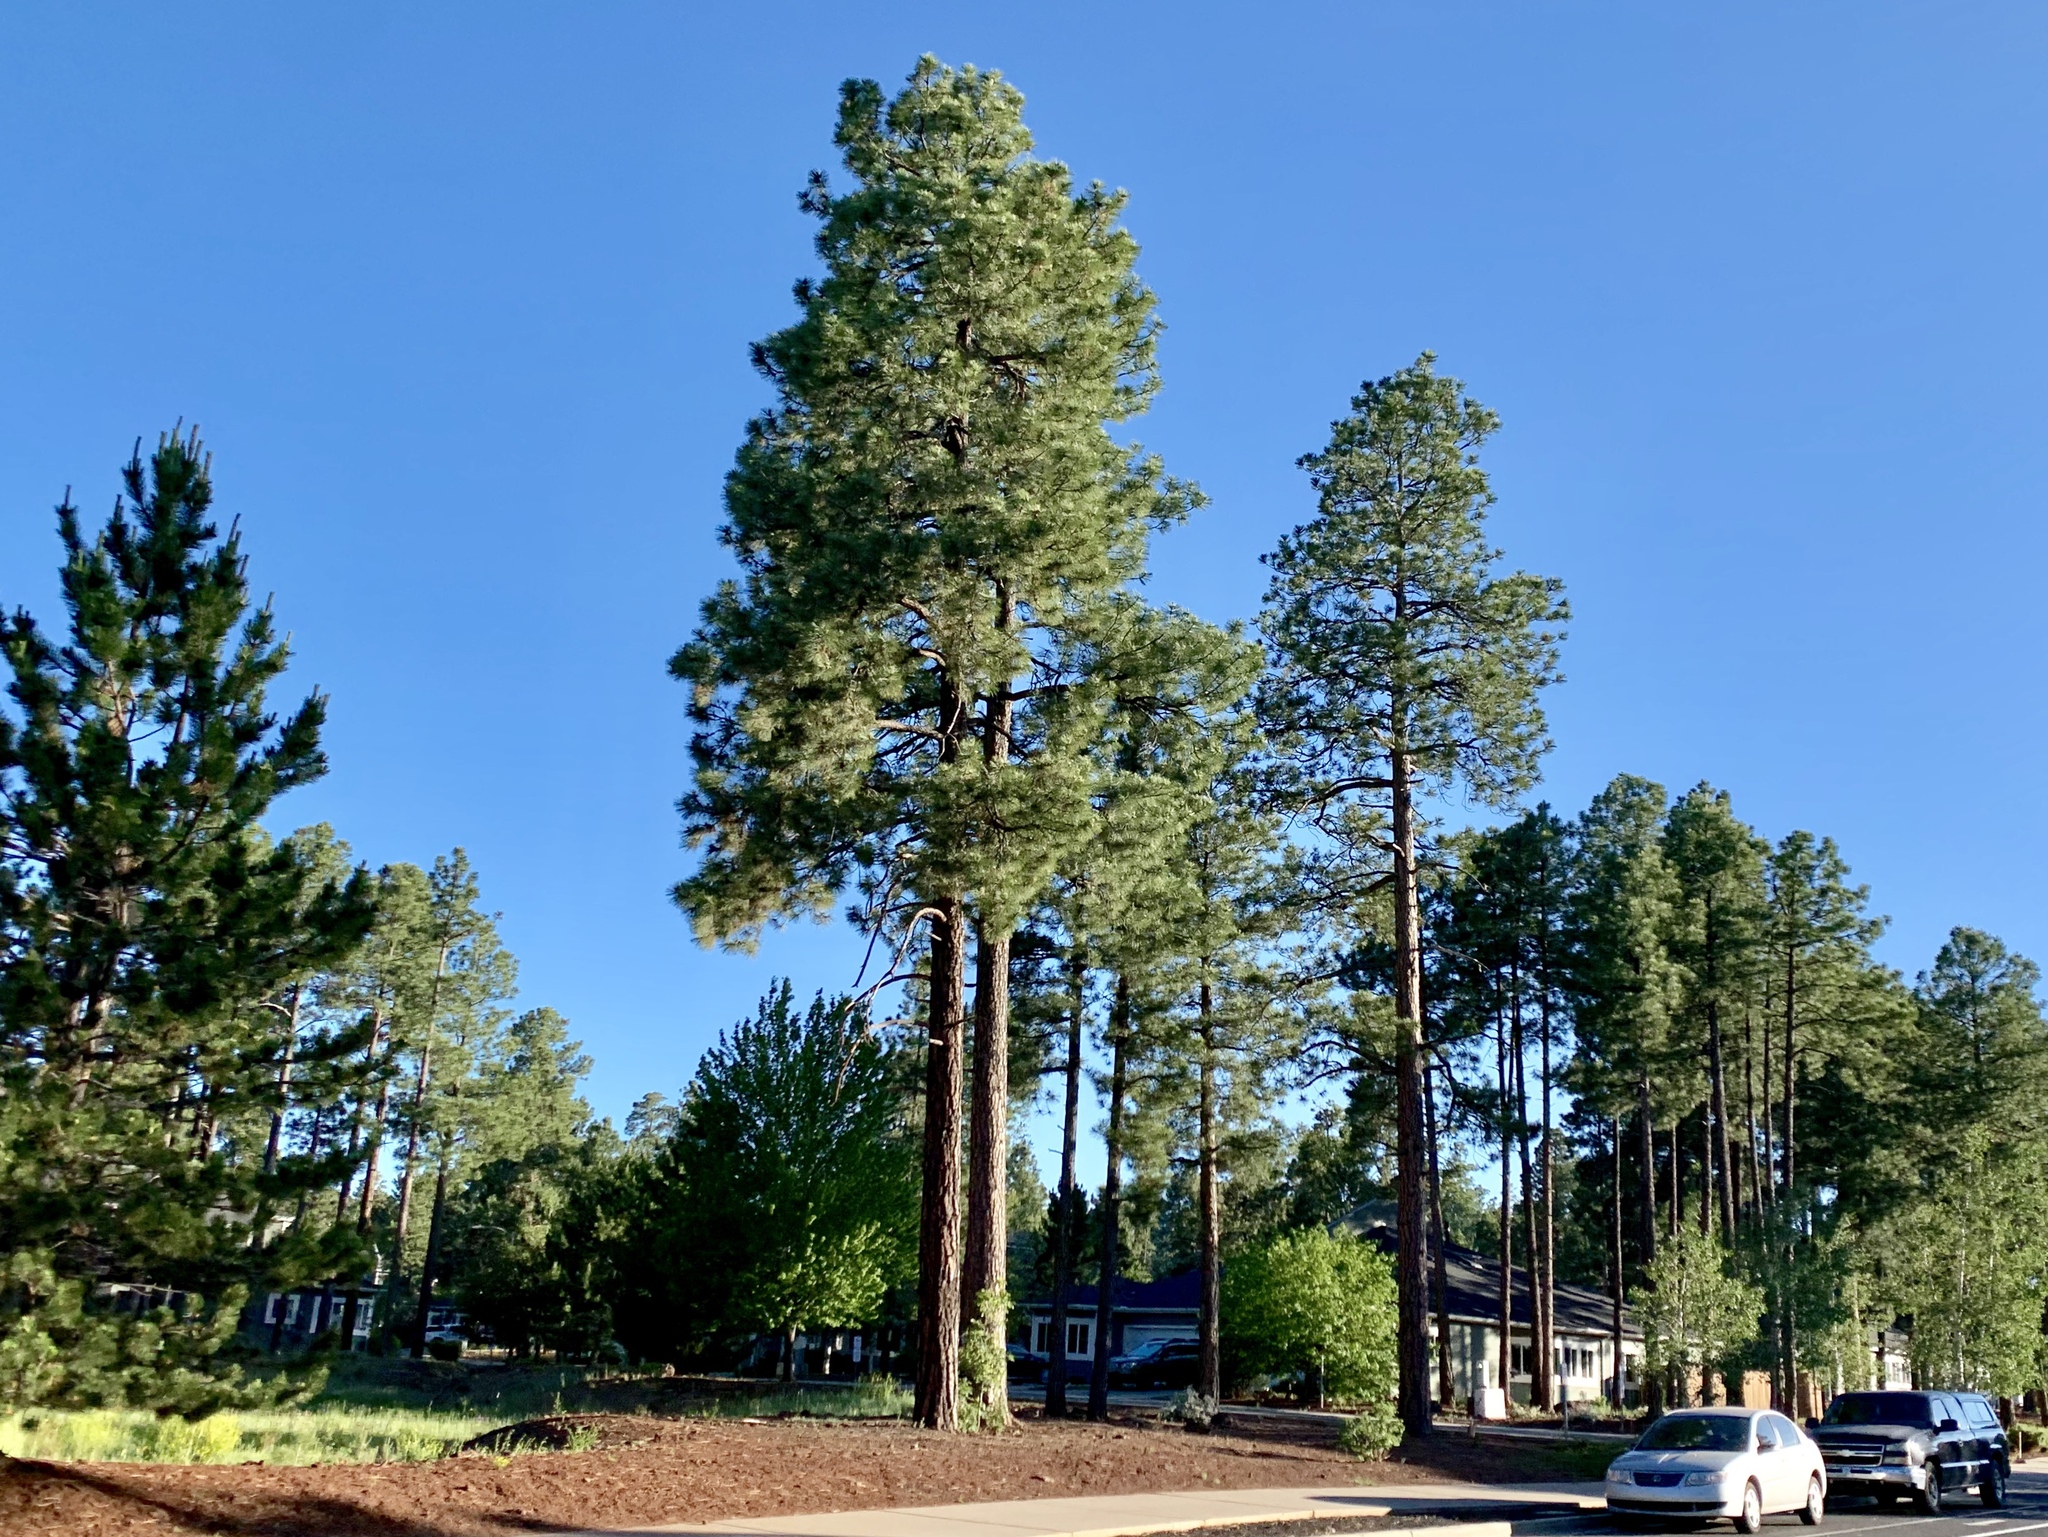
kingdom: Plantae
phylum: Tracheophyta
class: Pinopsida
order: Pinales
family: Pinaceae
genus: Pinus
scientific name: Pinus ponderosa
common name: Western yellow-pine
